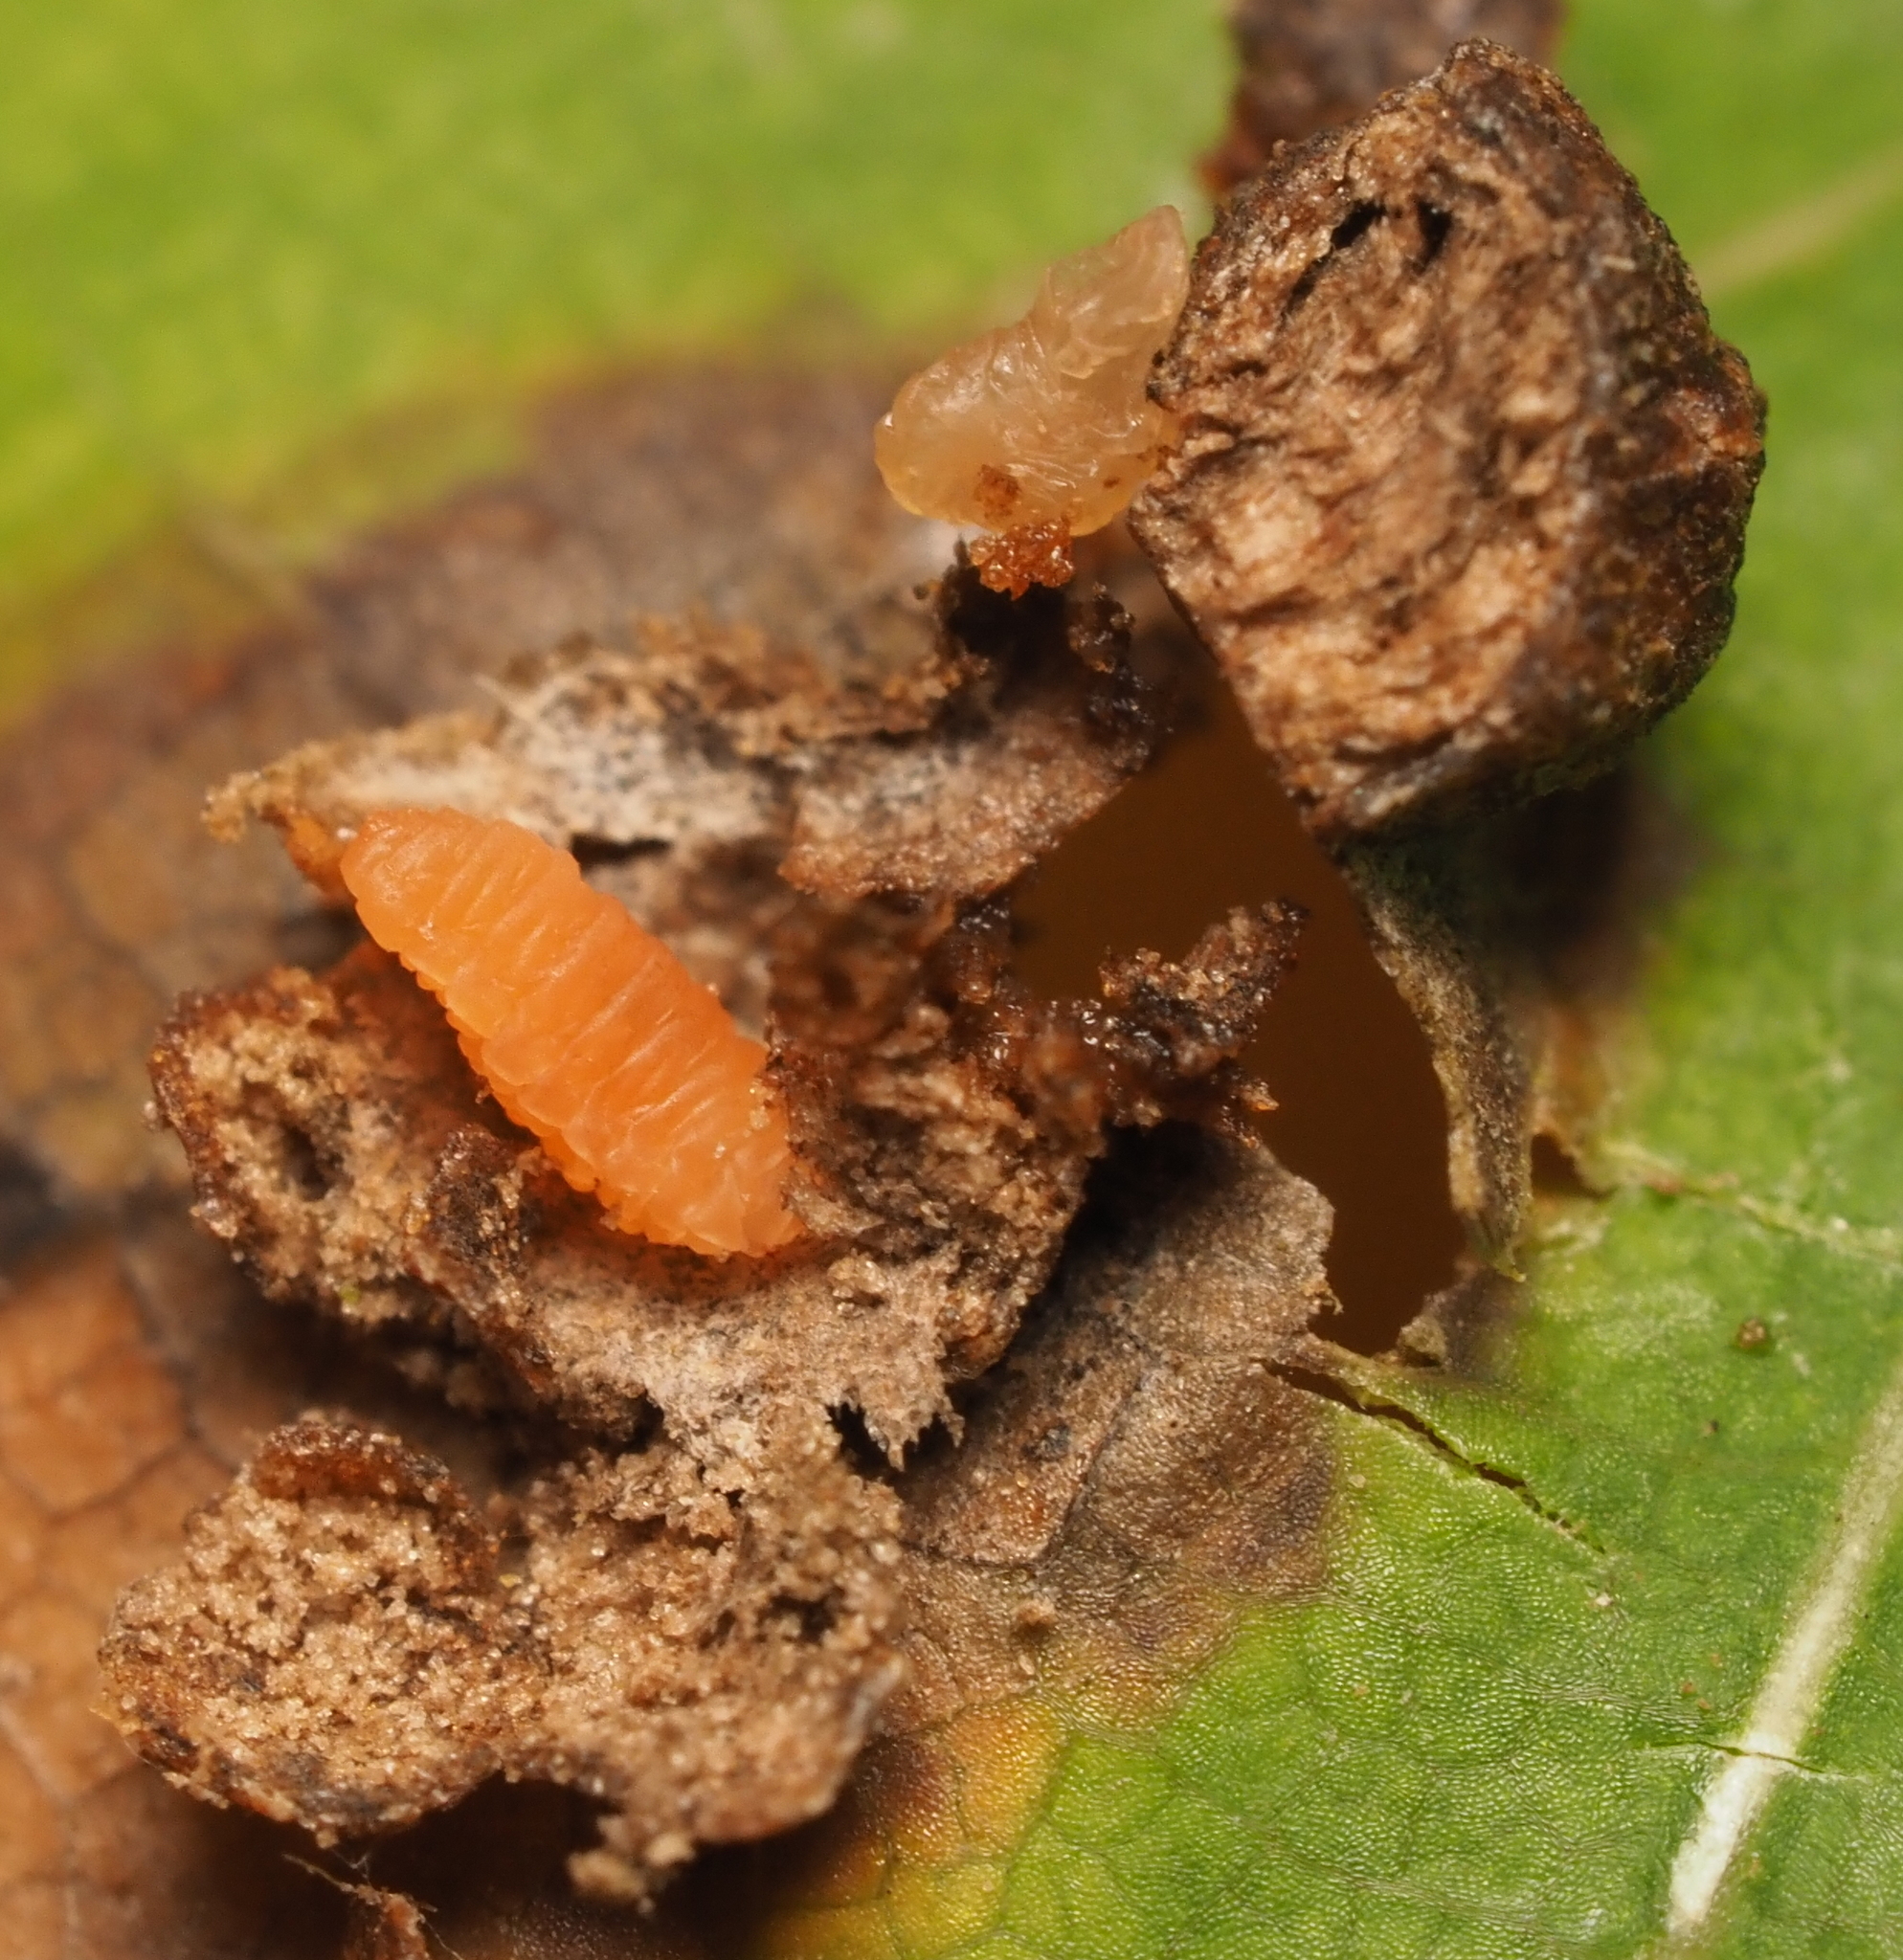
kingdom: Animalia
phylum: Arthropoda
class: Insecta
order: Diptera
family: Cecidomyiidae
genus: Polystepha
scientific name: Polystepha pilulae
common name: Oak leaf gall midge
